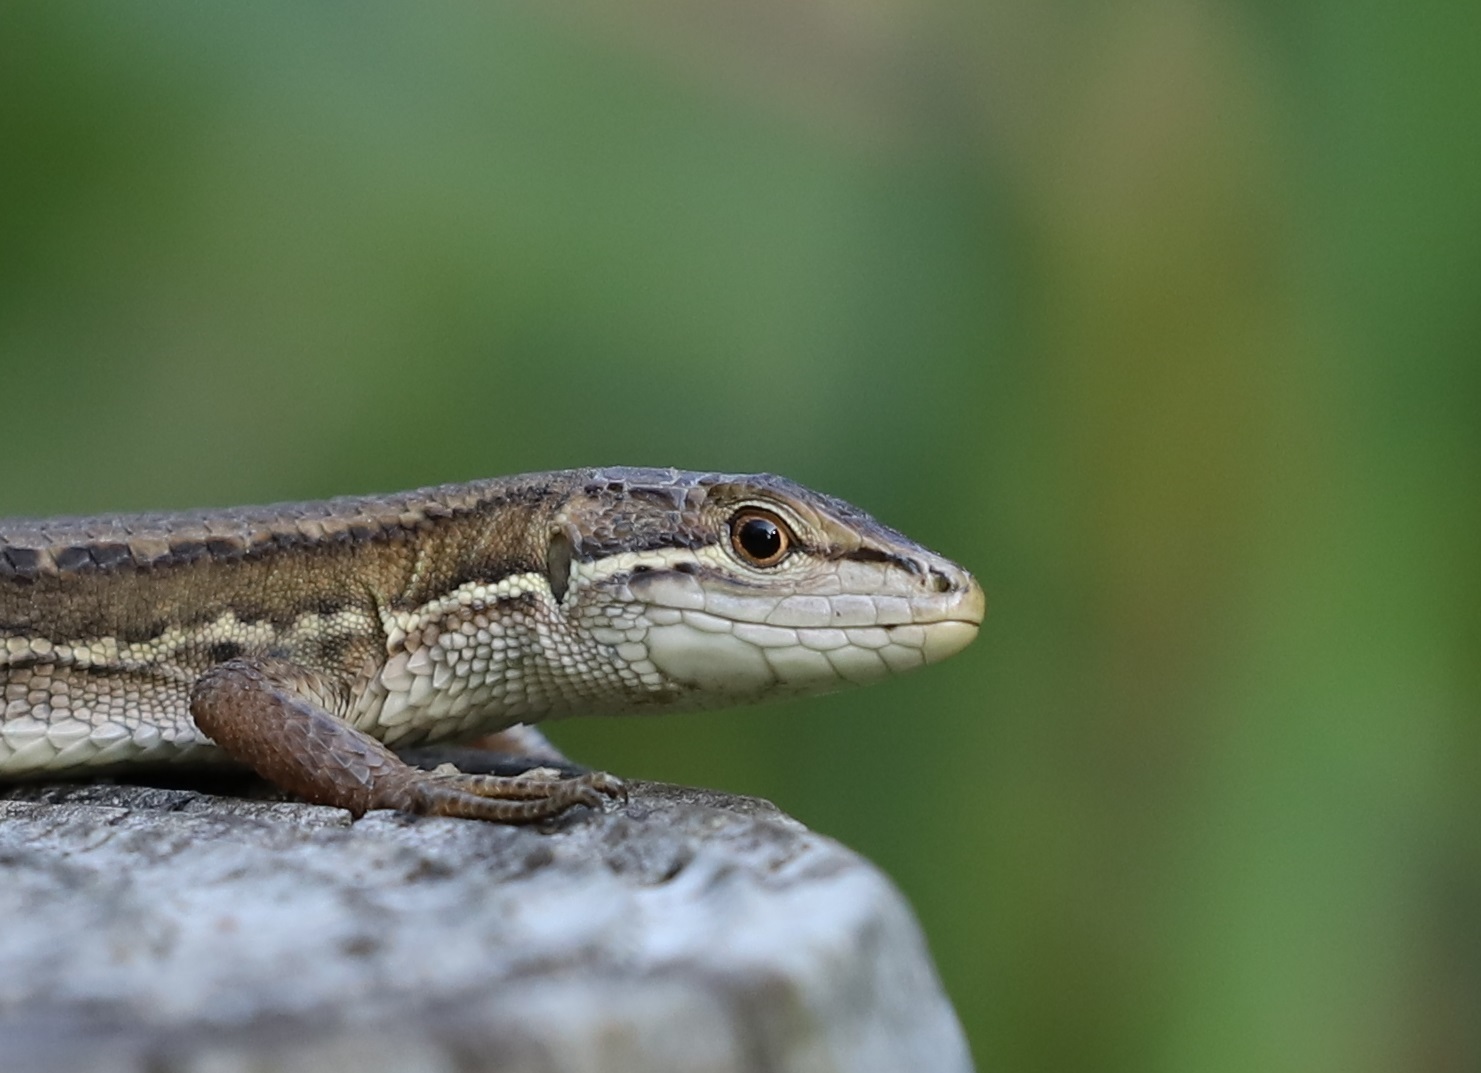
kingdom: Animalia
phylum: Chordata
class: Squamata
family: Lacertidae
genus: Takydromus
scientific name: Takydromus tachydromoides
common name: Japanese grass lizard
